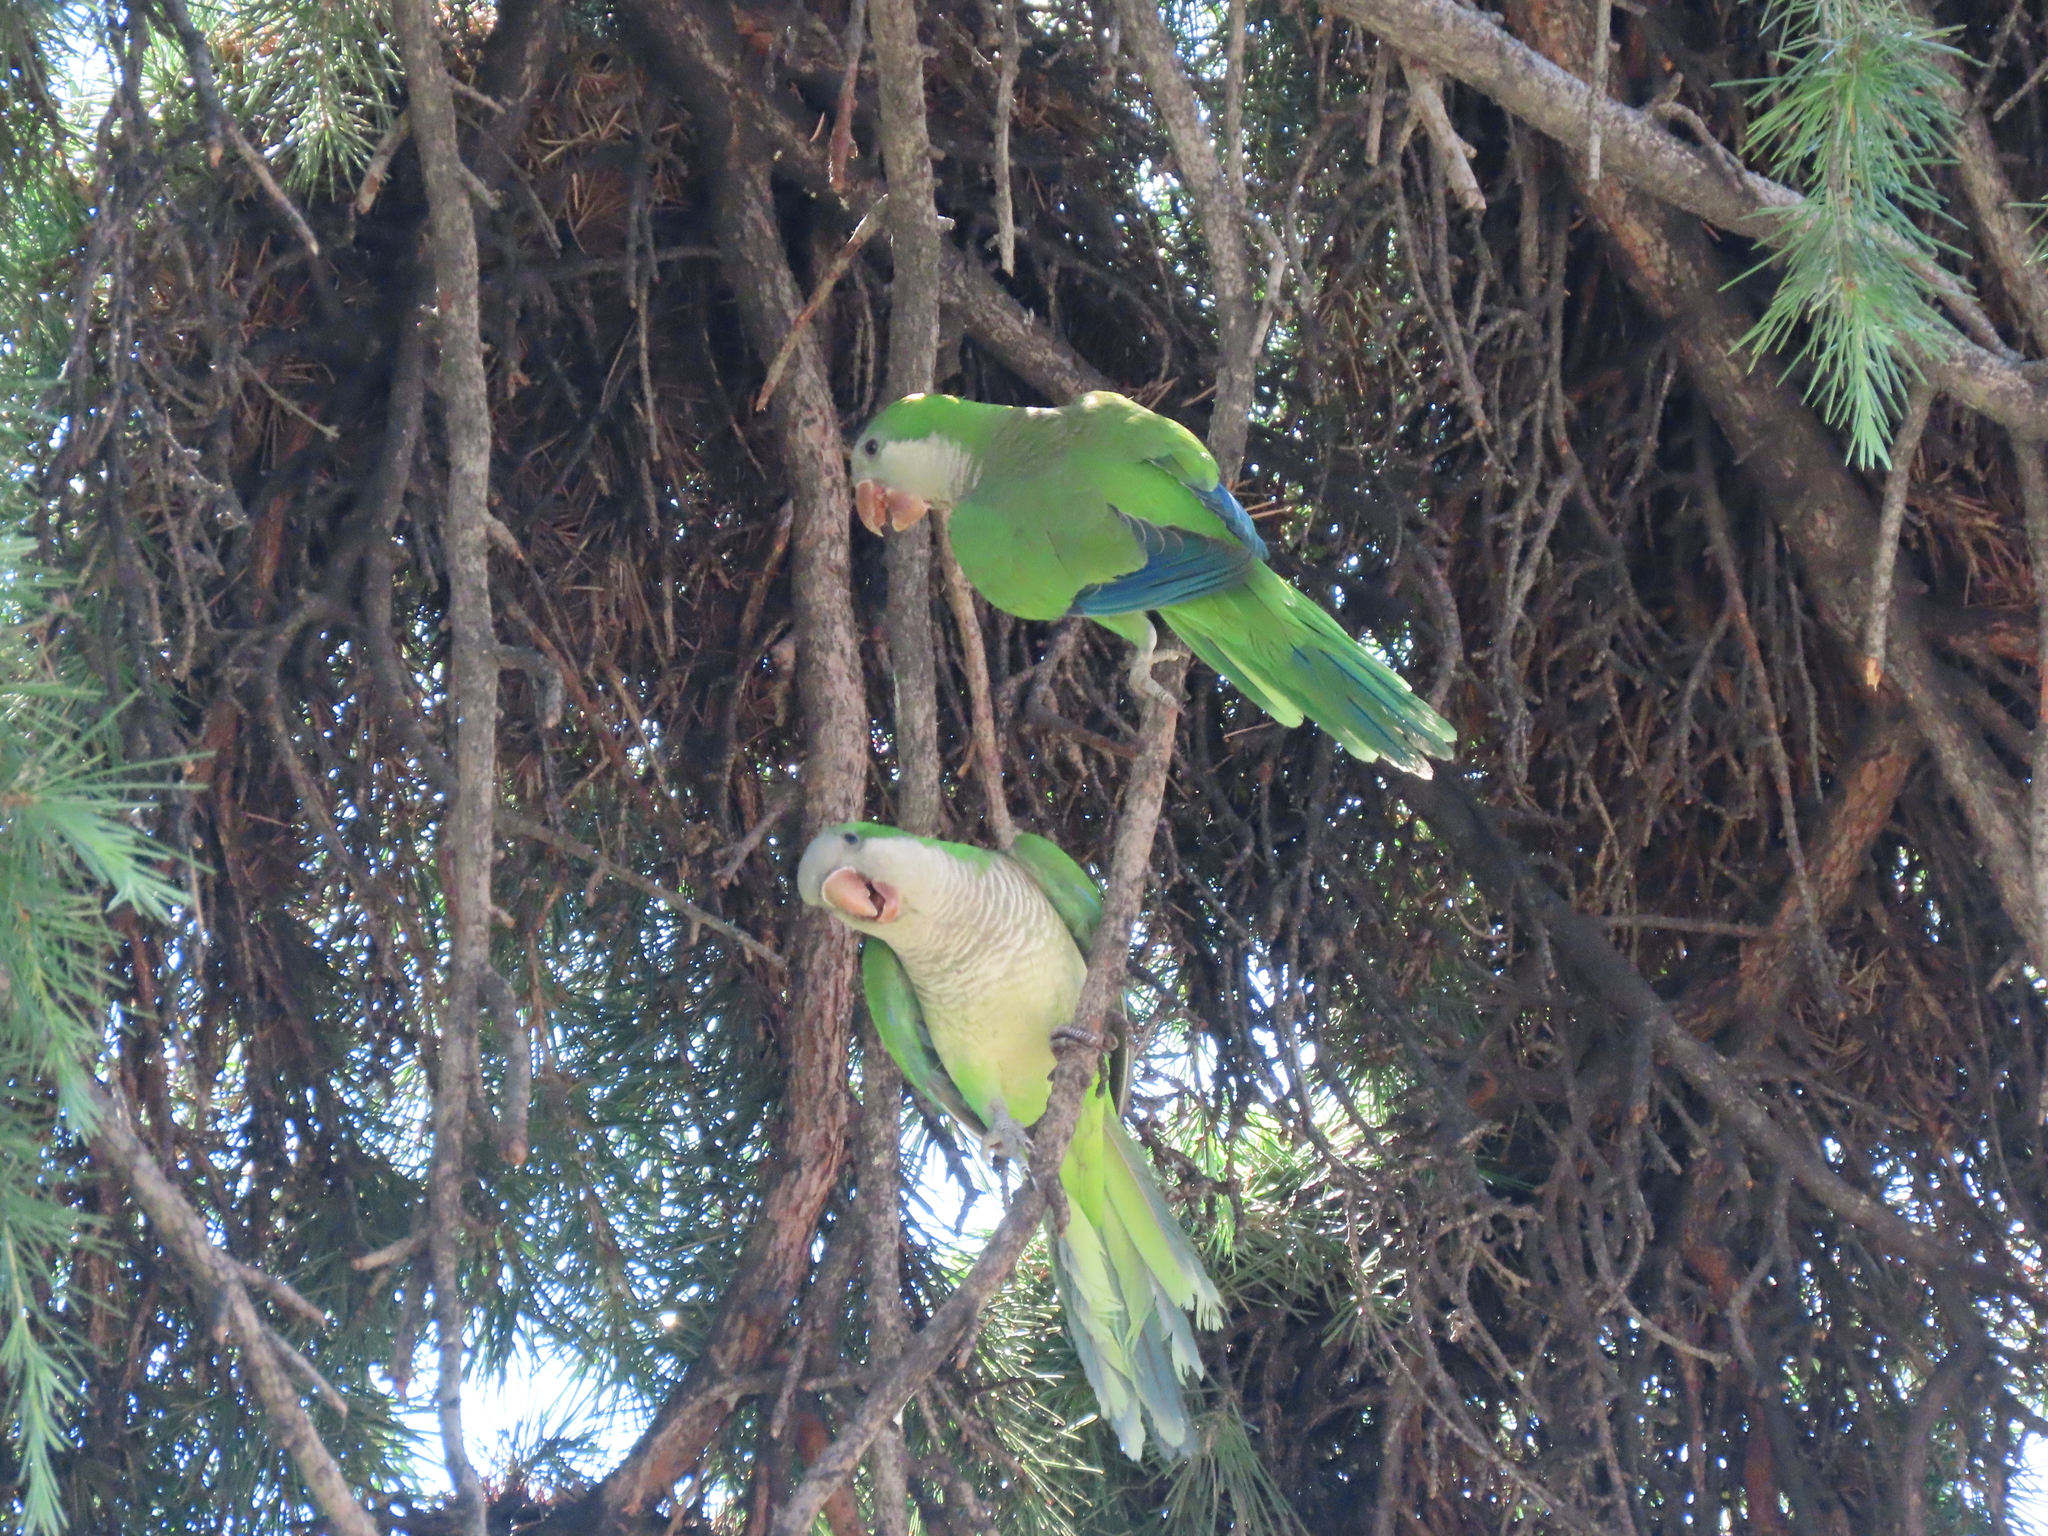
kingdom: Animalia
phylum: Chordata
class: Aves
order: Psittaciformes
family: Psittacidae
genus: Myiopsitta
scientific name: Myiopsitta monachus
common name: Monk parakeet
